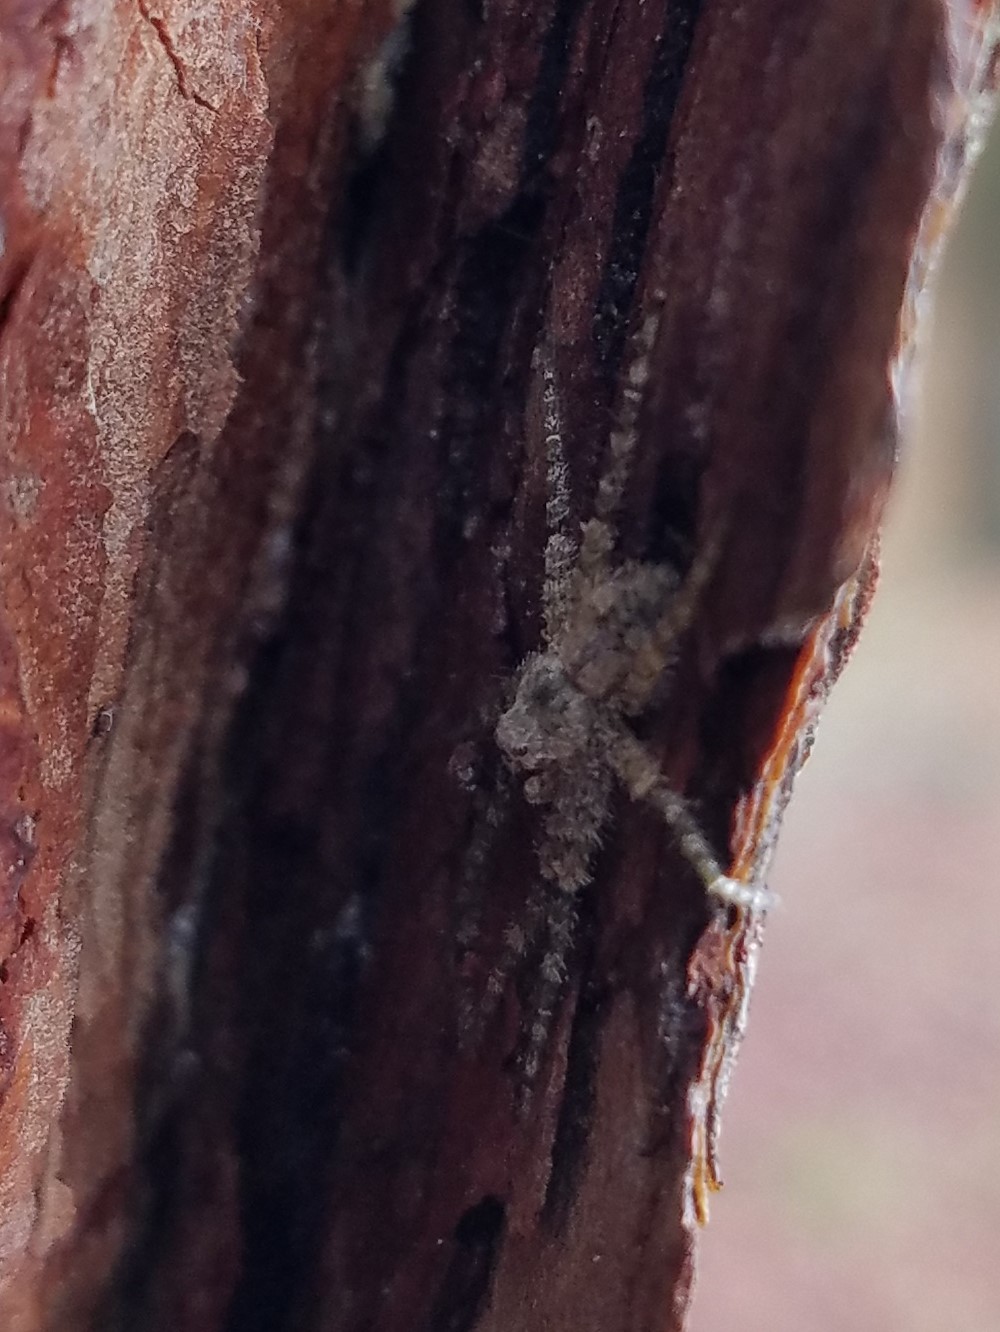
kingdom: Animalia
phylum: Arthropoda
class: Arachnida
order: Araneae
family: Pisauridae
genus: Dolomedes
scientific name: Dolomedes albineus
